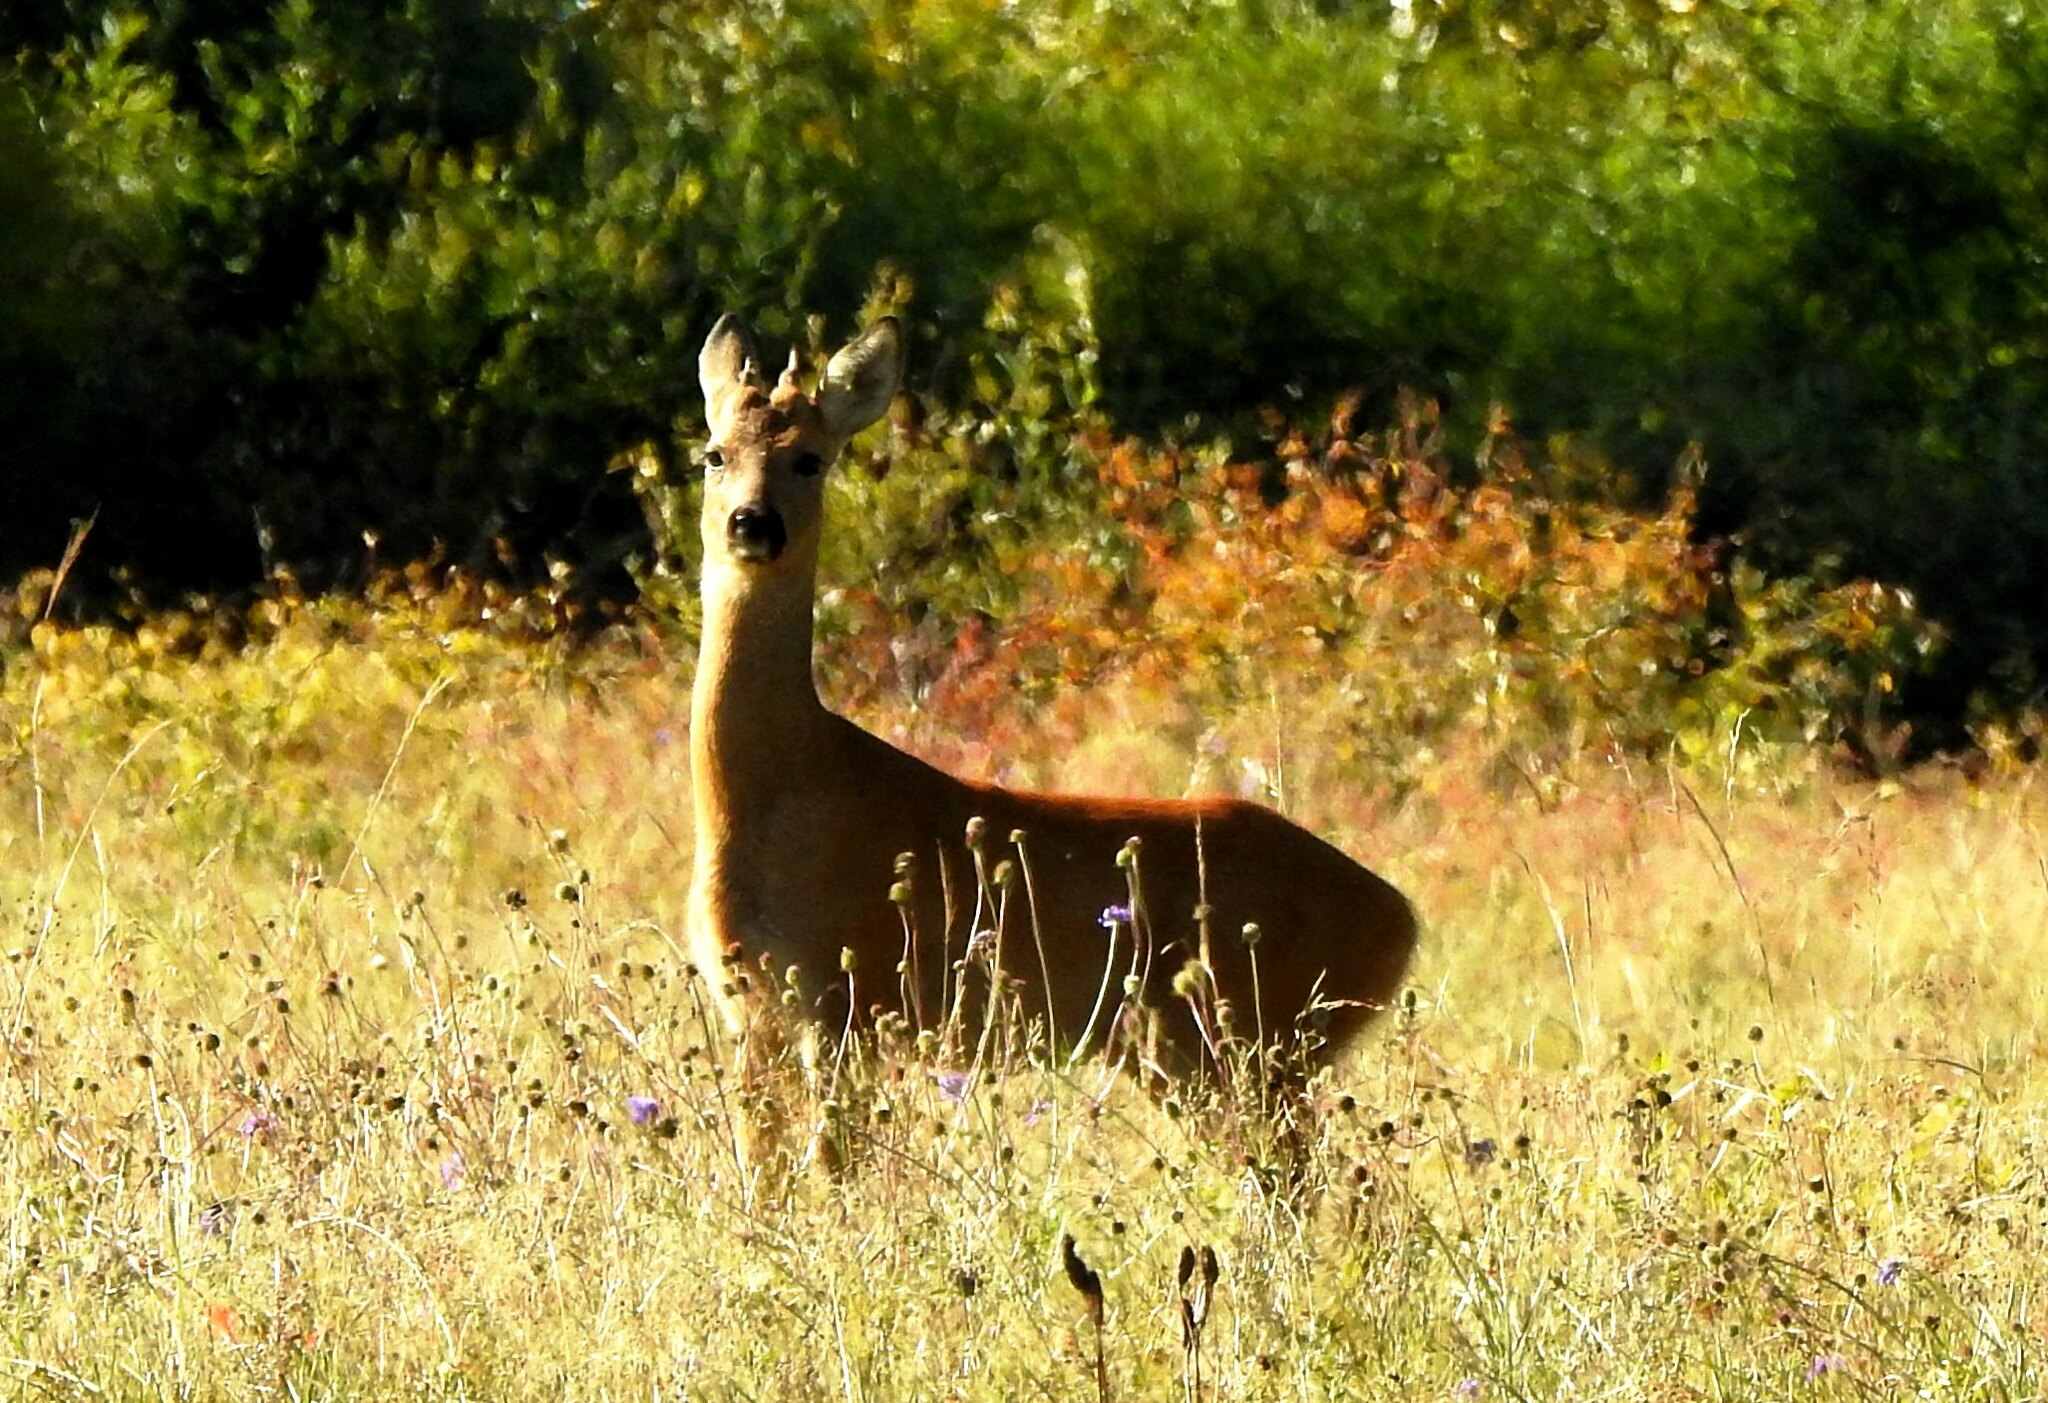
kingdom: Animalia
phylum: Chordata
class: Mammalia
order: Artiodactyla
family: Cervidae
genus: Capreolus
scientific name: Capreolus pygargus
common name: Siberian roe
